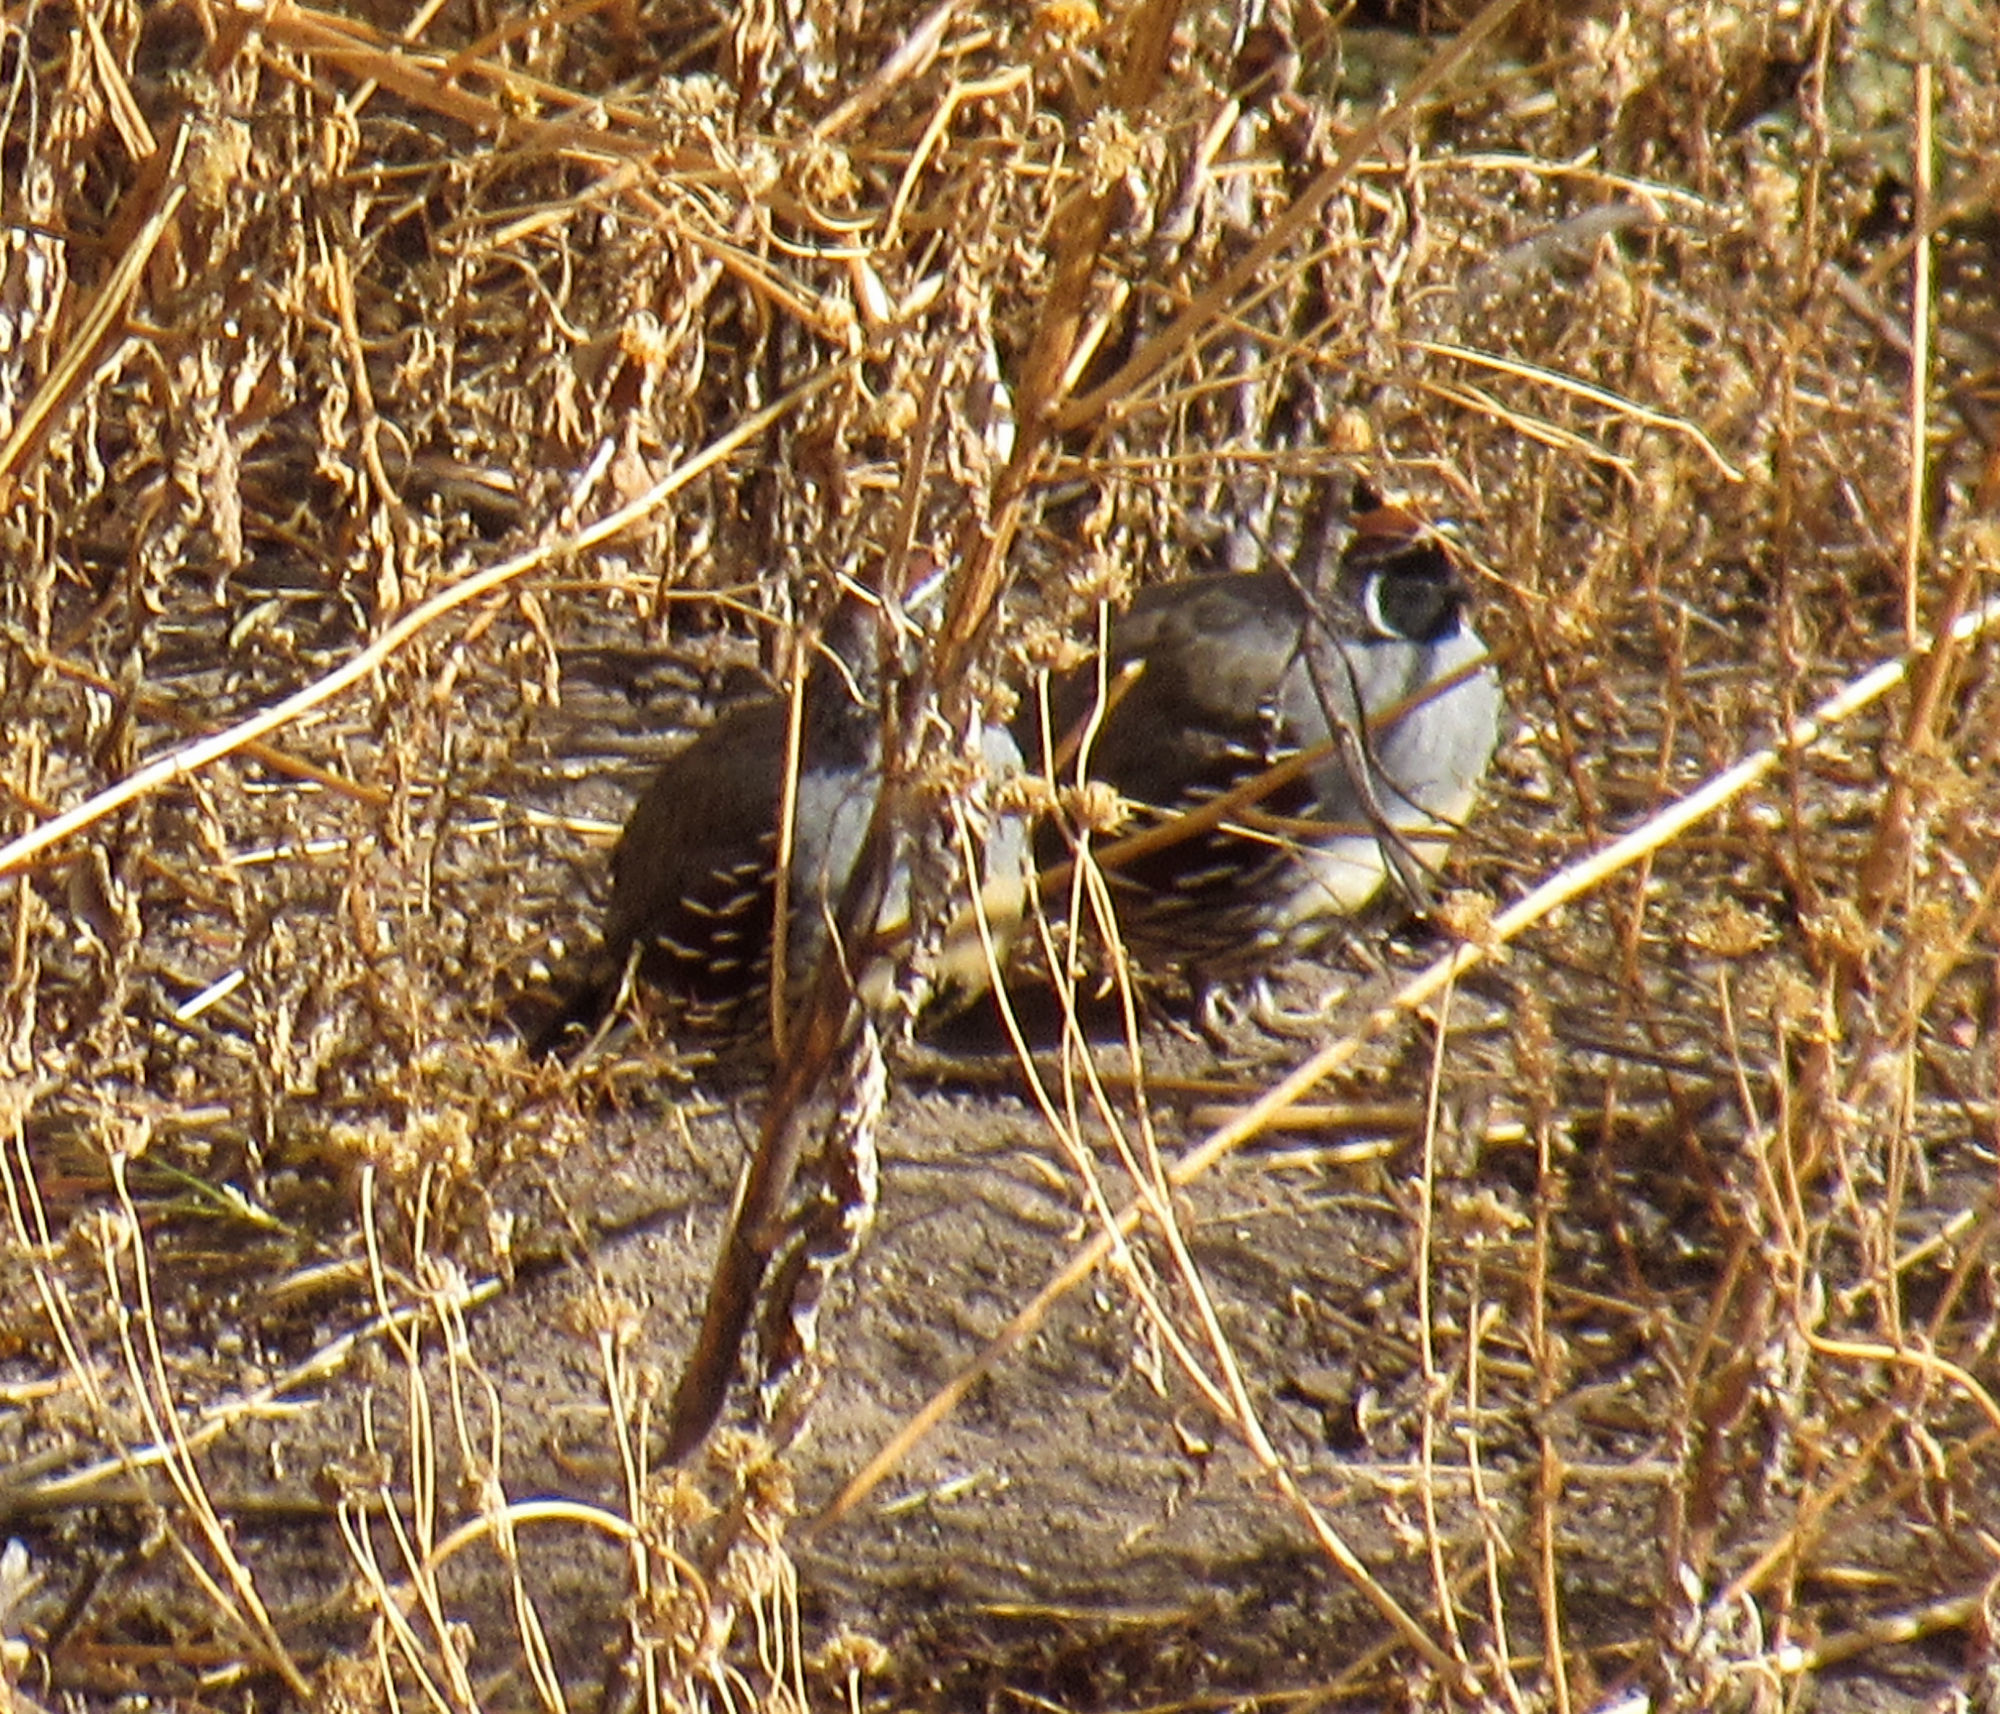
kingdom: Animalia
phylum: Chordata
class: Aves
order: Galliformes
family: Odontophoridae
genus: Callipepla
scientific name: Callipepla gambelii
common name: Gambel's quail
